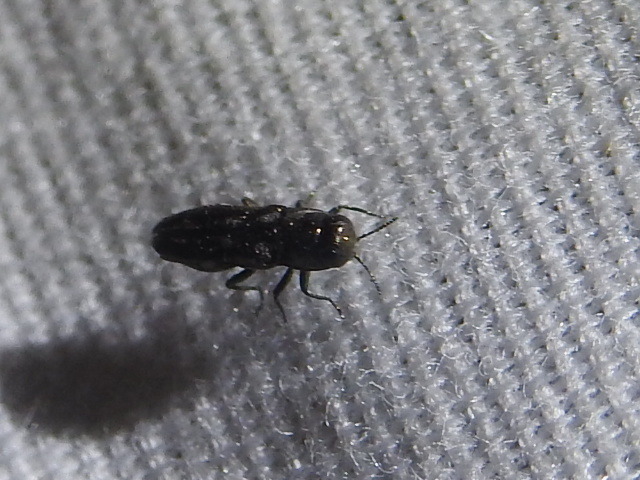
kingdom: Animalia
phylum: Arthropoda
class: Insecta
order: Coleoptera
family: Buprestidae
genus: Agrilus
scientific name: Agrilus bentseni
